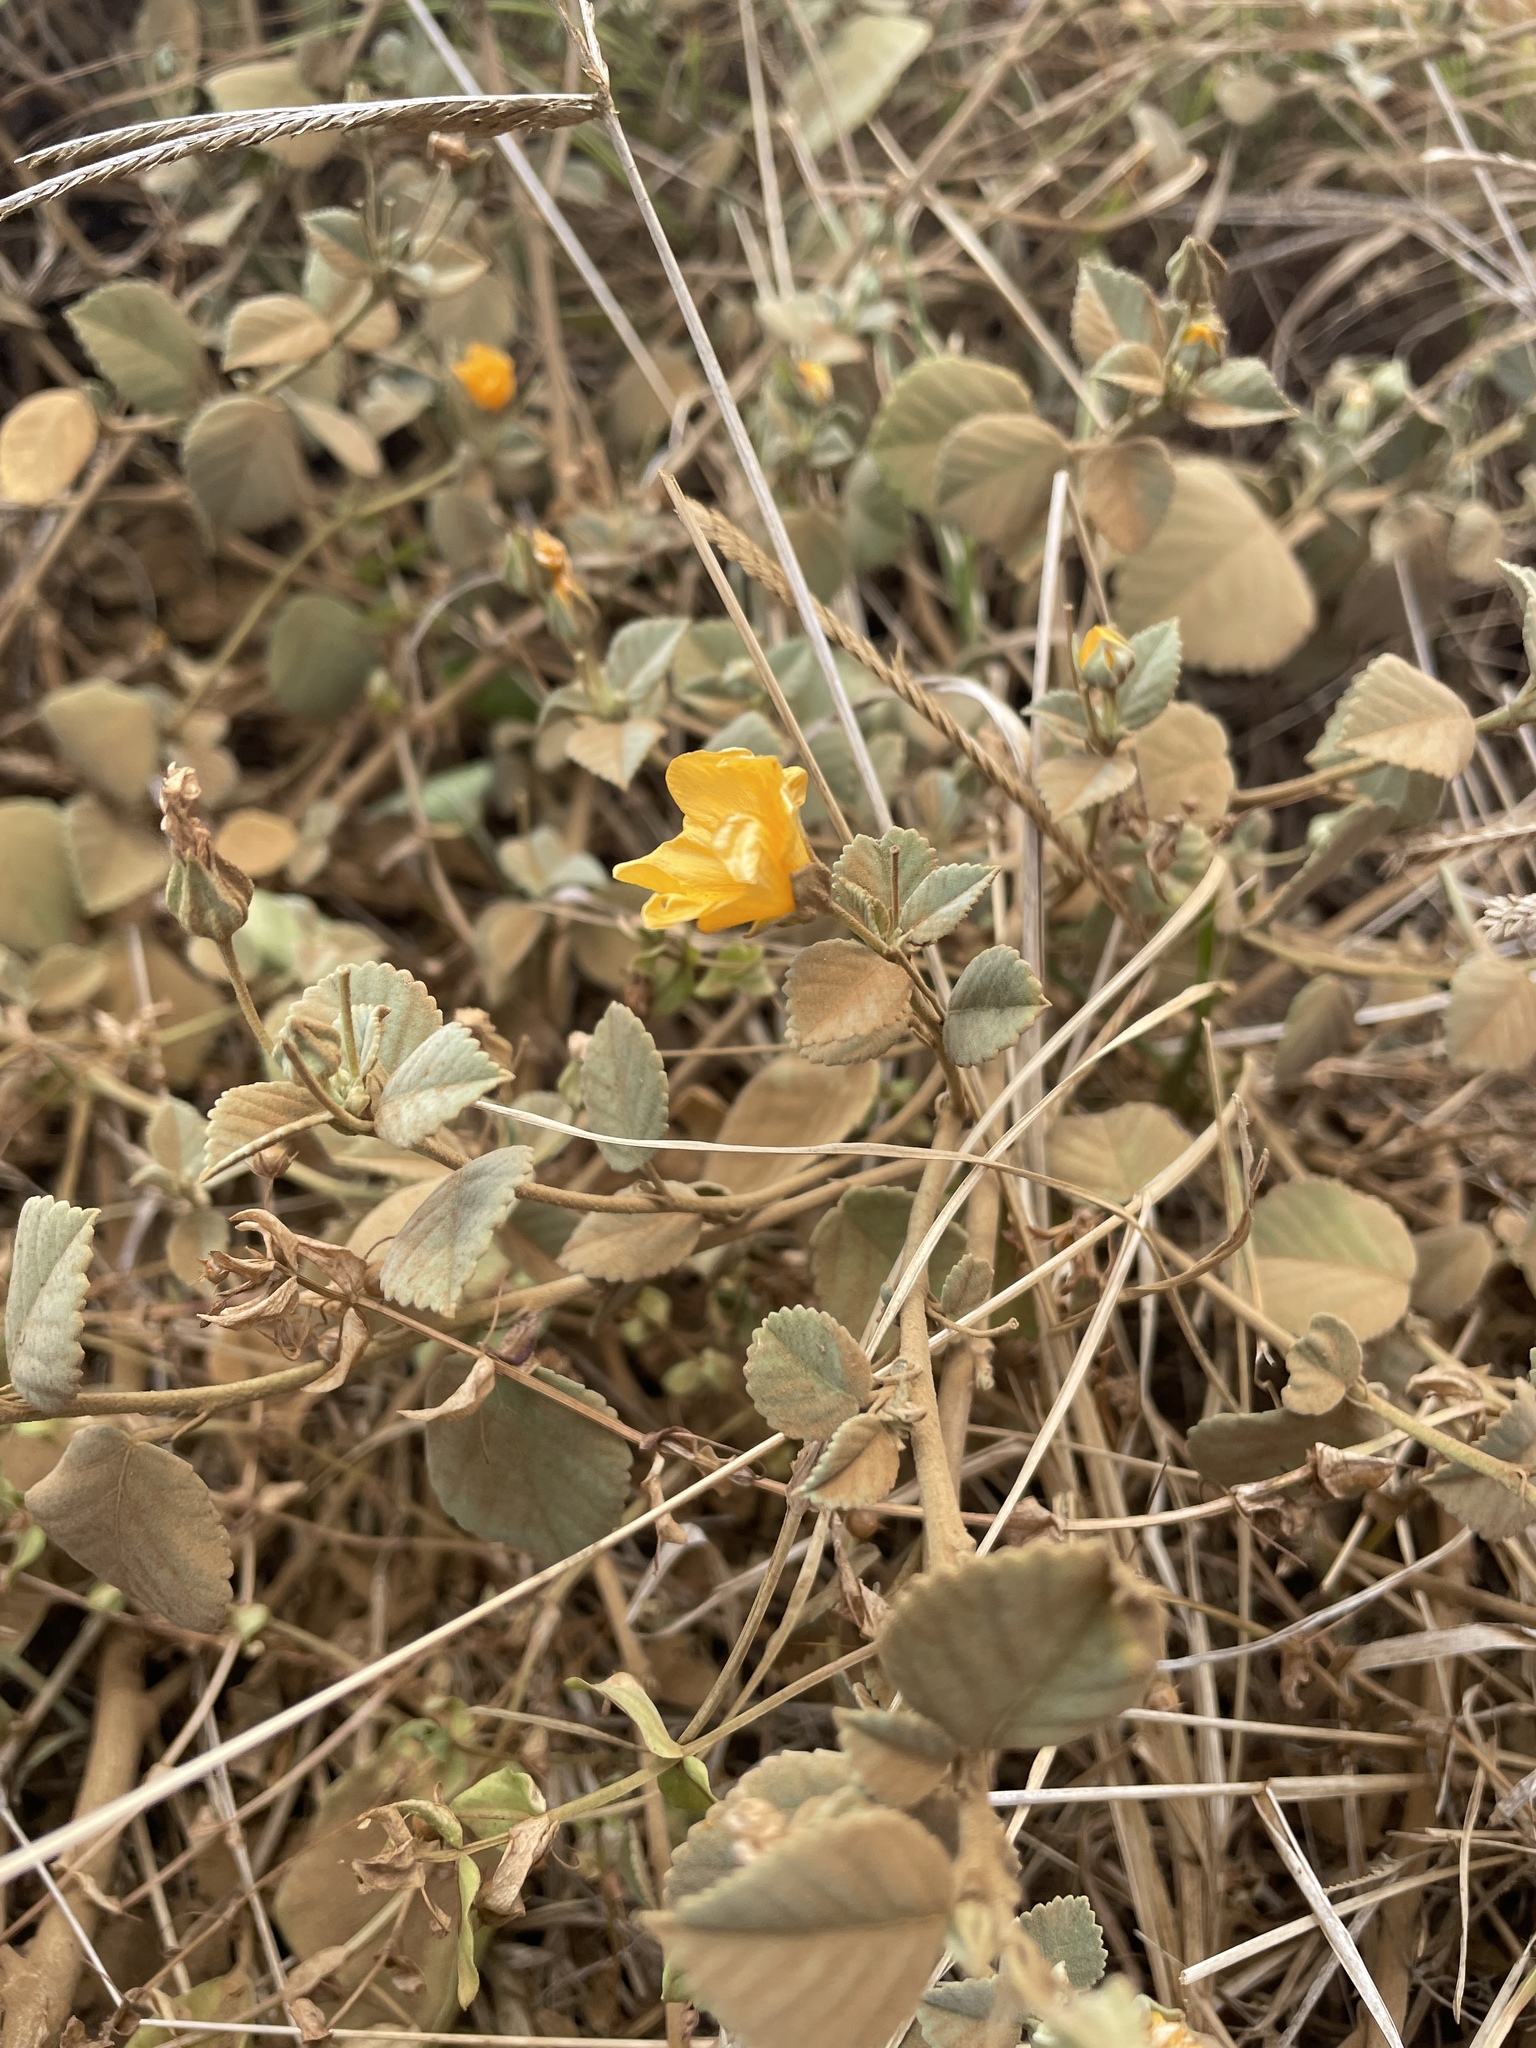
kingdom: Plantae
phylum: Tracheophyta
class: Magnoliopsida
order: Malvales
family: Malvaceae
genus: Sida
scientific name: Sida fallax
